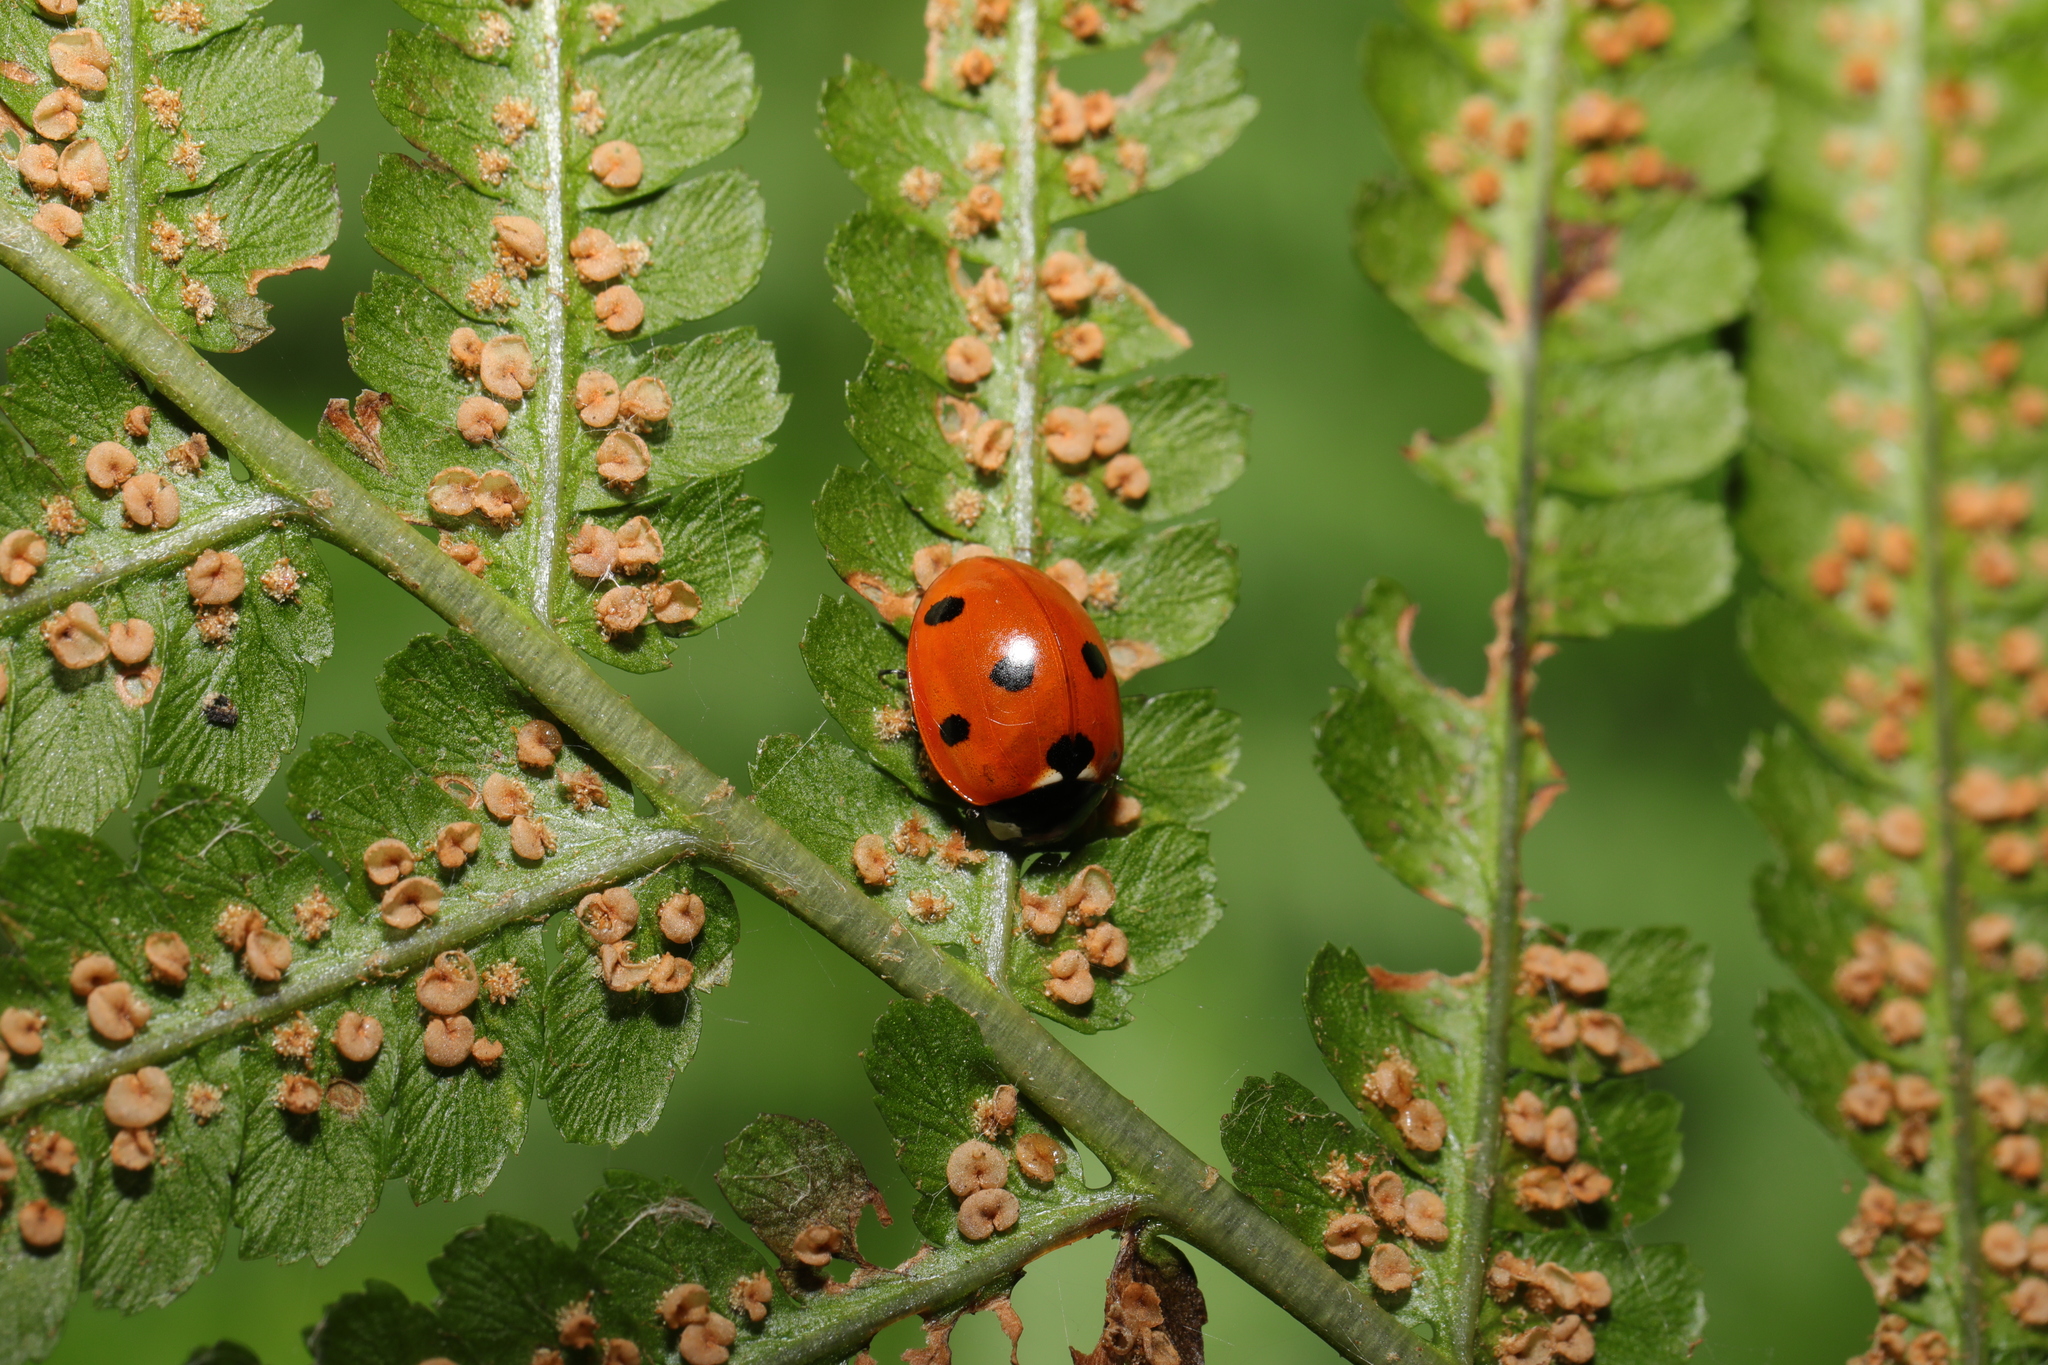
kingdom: Animalia
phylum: Arthropoda
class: Insecta
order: Coleoptera
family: Coccinellidae
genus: Coccinella
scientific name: Coccinella septempunctata
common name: Sevenspotted lady beetle
